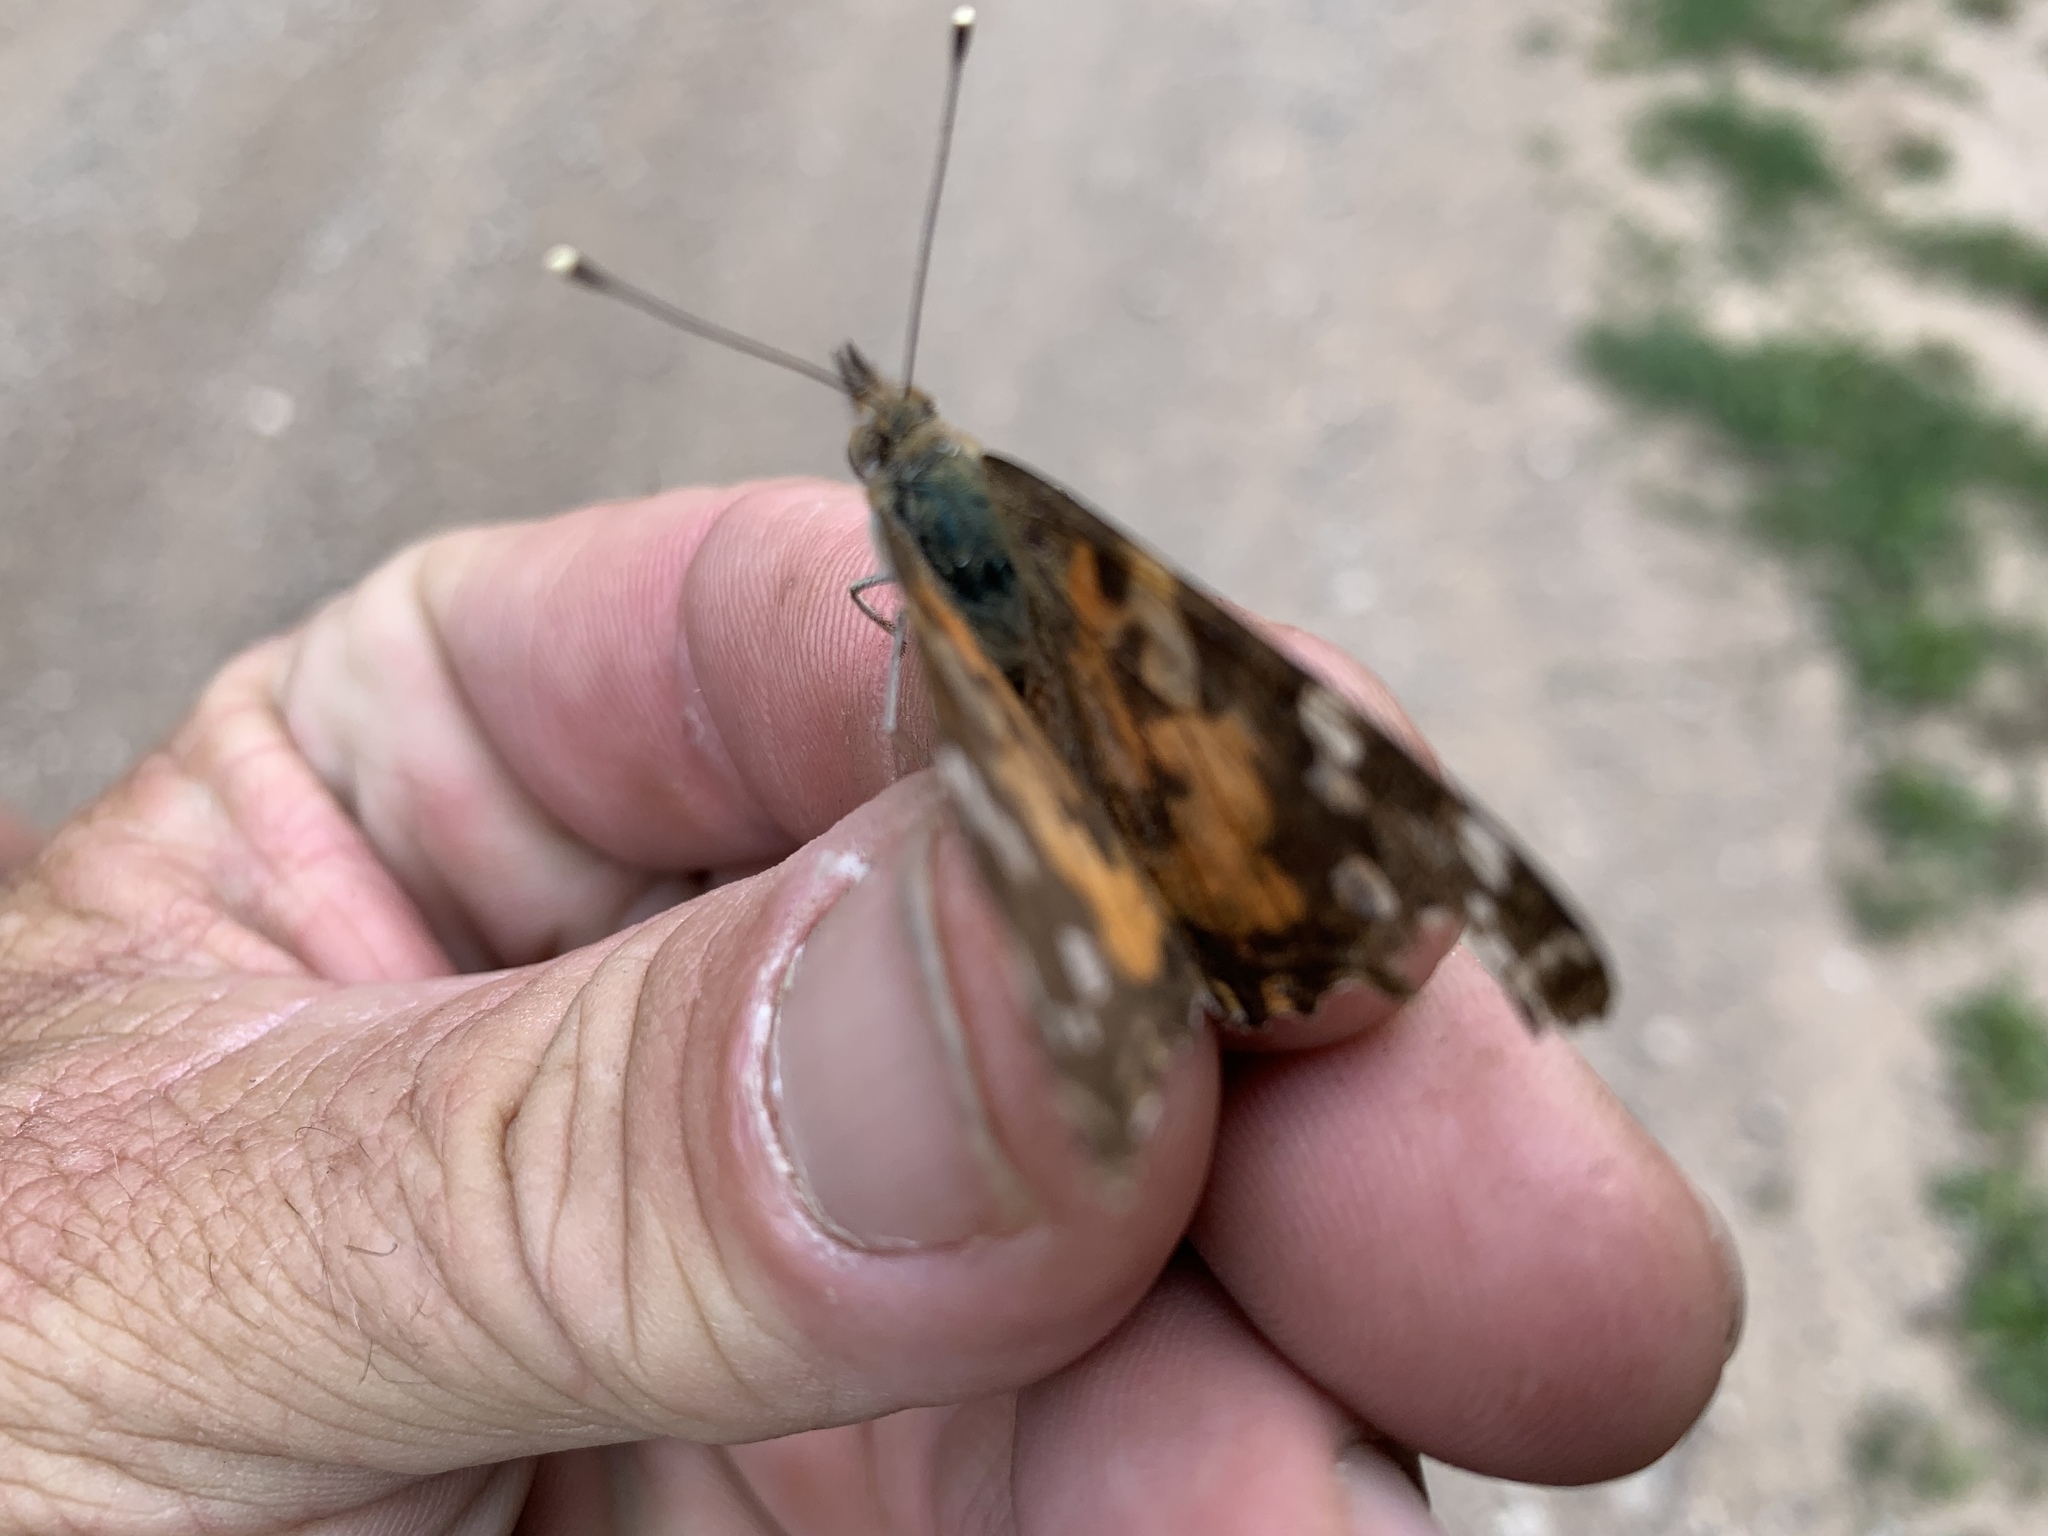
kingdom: Animalia
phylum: Arthropoda
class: Insecta
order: Lepidoptera
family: Nymphalidae
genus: Vanessa
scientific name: Vanessa cardui
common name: Painted lady
